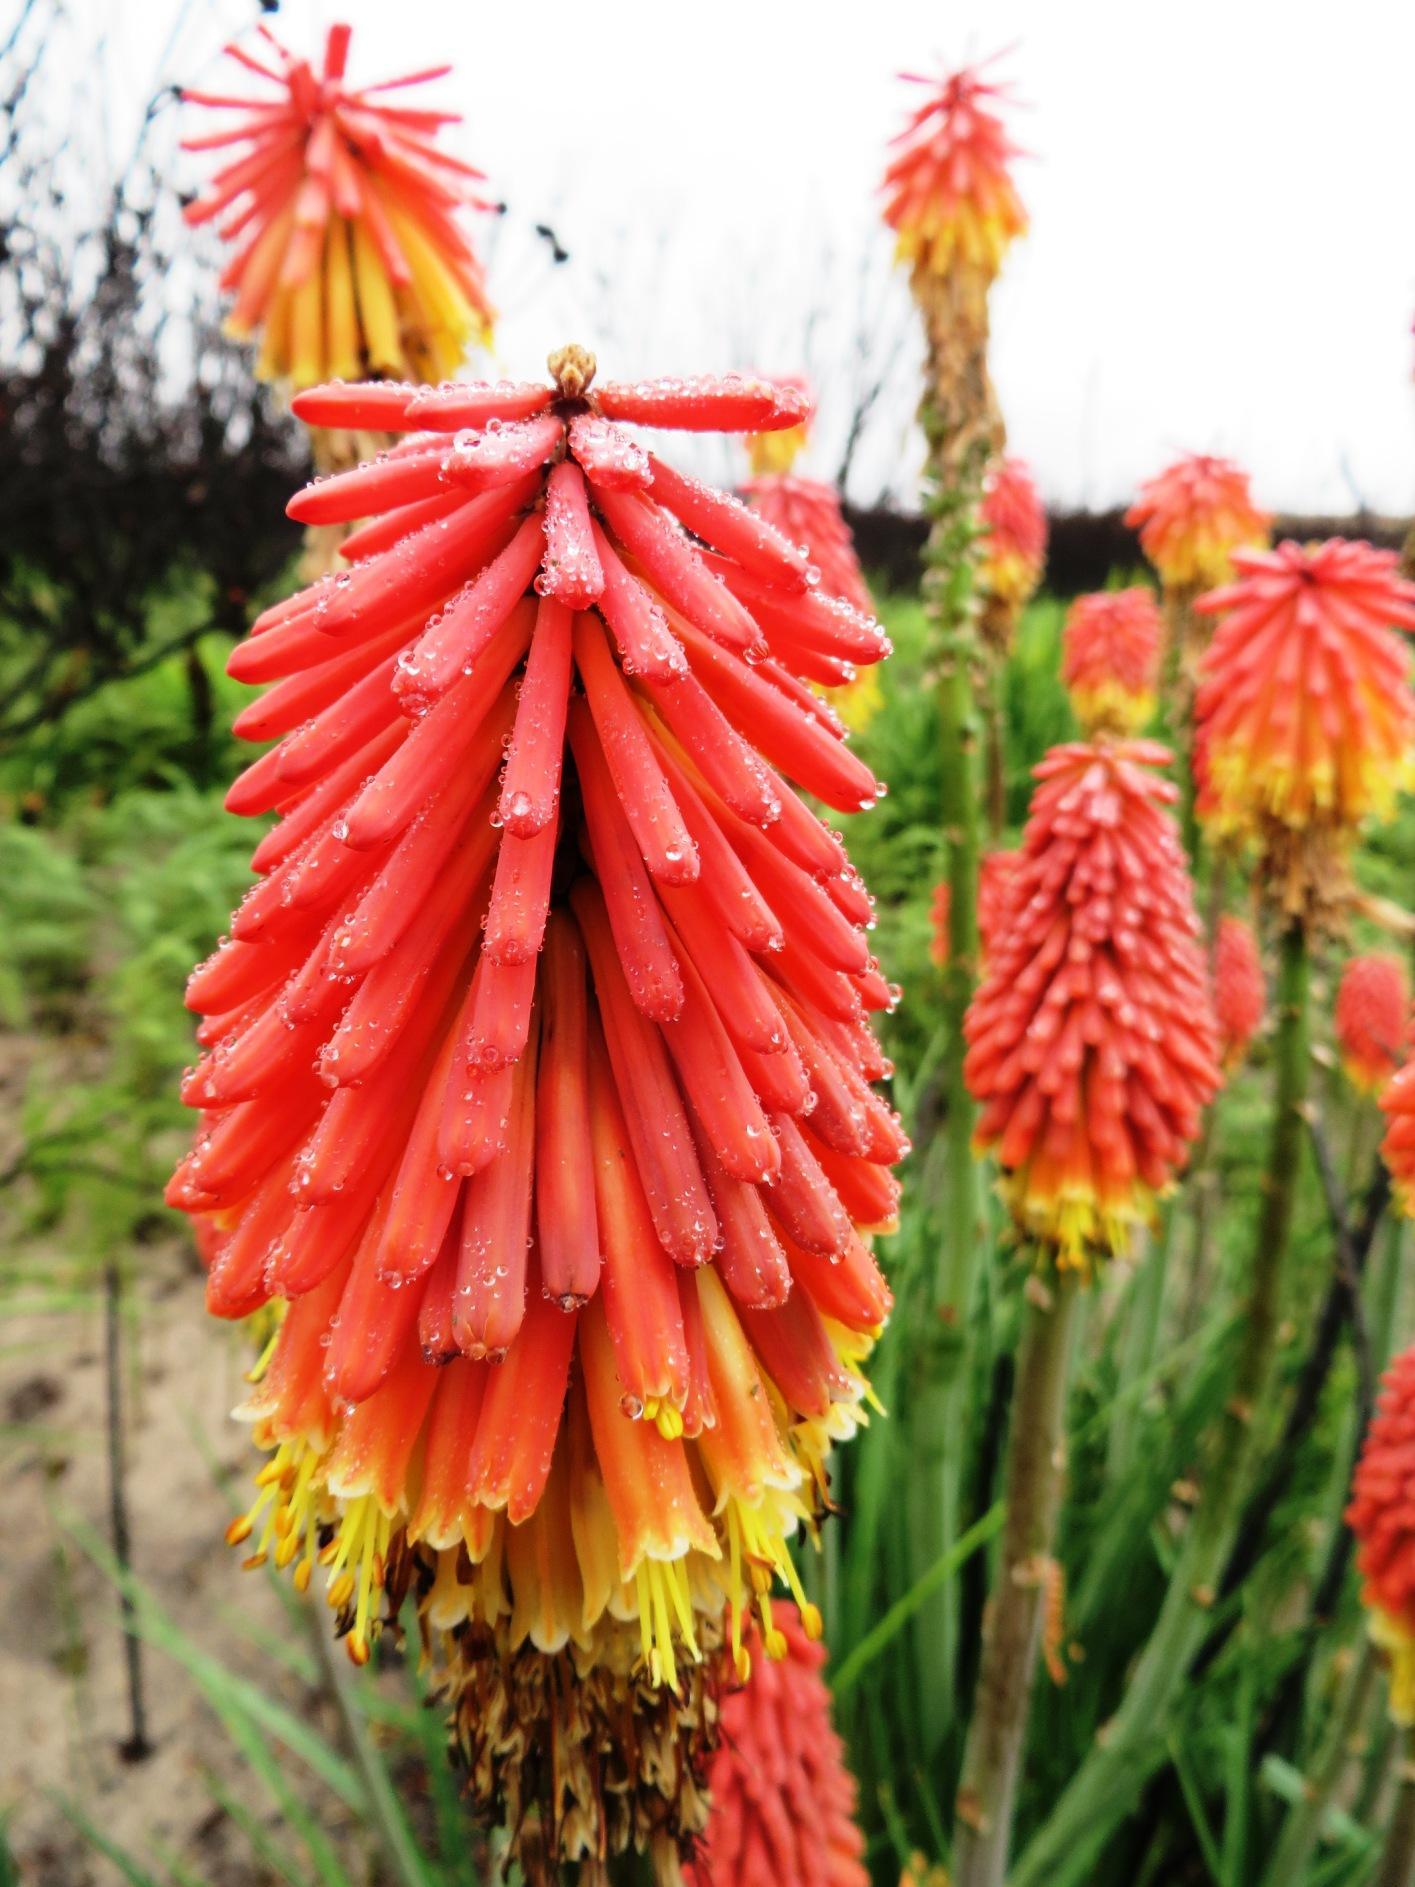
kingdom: Plantae
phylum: Tracheophyta
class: Liliopsida
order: Asparagales
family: Asphodelaceae
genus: Kniphofia
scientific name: Kniphofia uvaria
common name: Red-hot-poker
